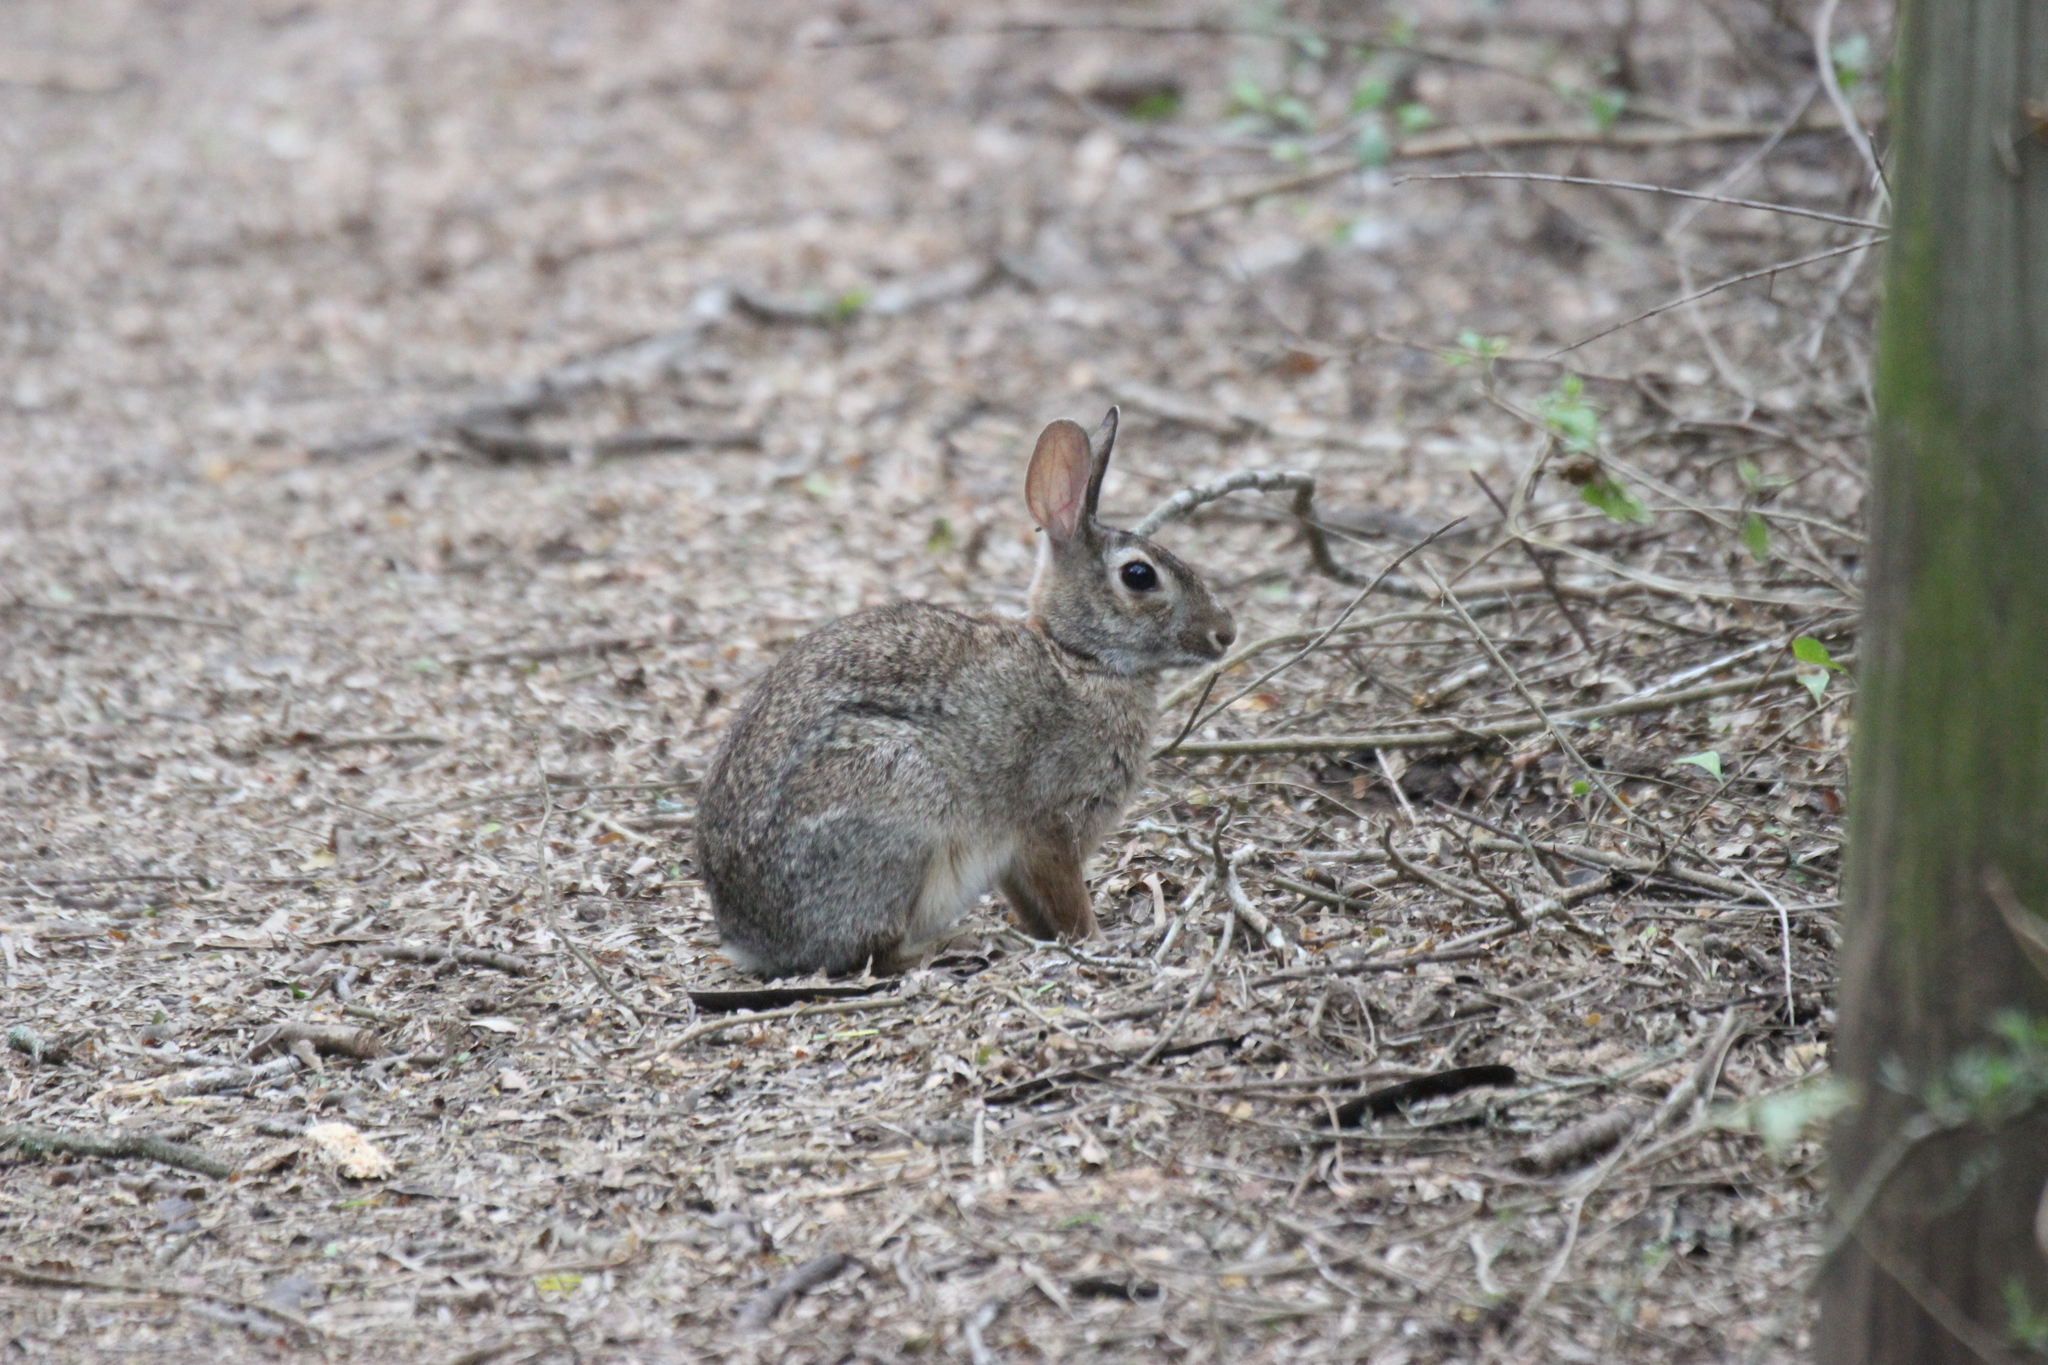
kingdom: Animalia
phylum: Chordata
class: Mammalia
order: Lagomorpha
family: Leporidae
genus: Sylvilagus
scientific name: Sylvilagus floridanus
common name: Eastern cottontail
